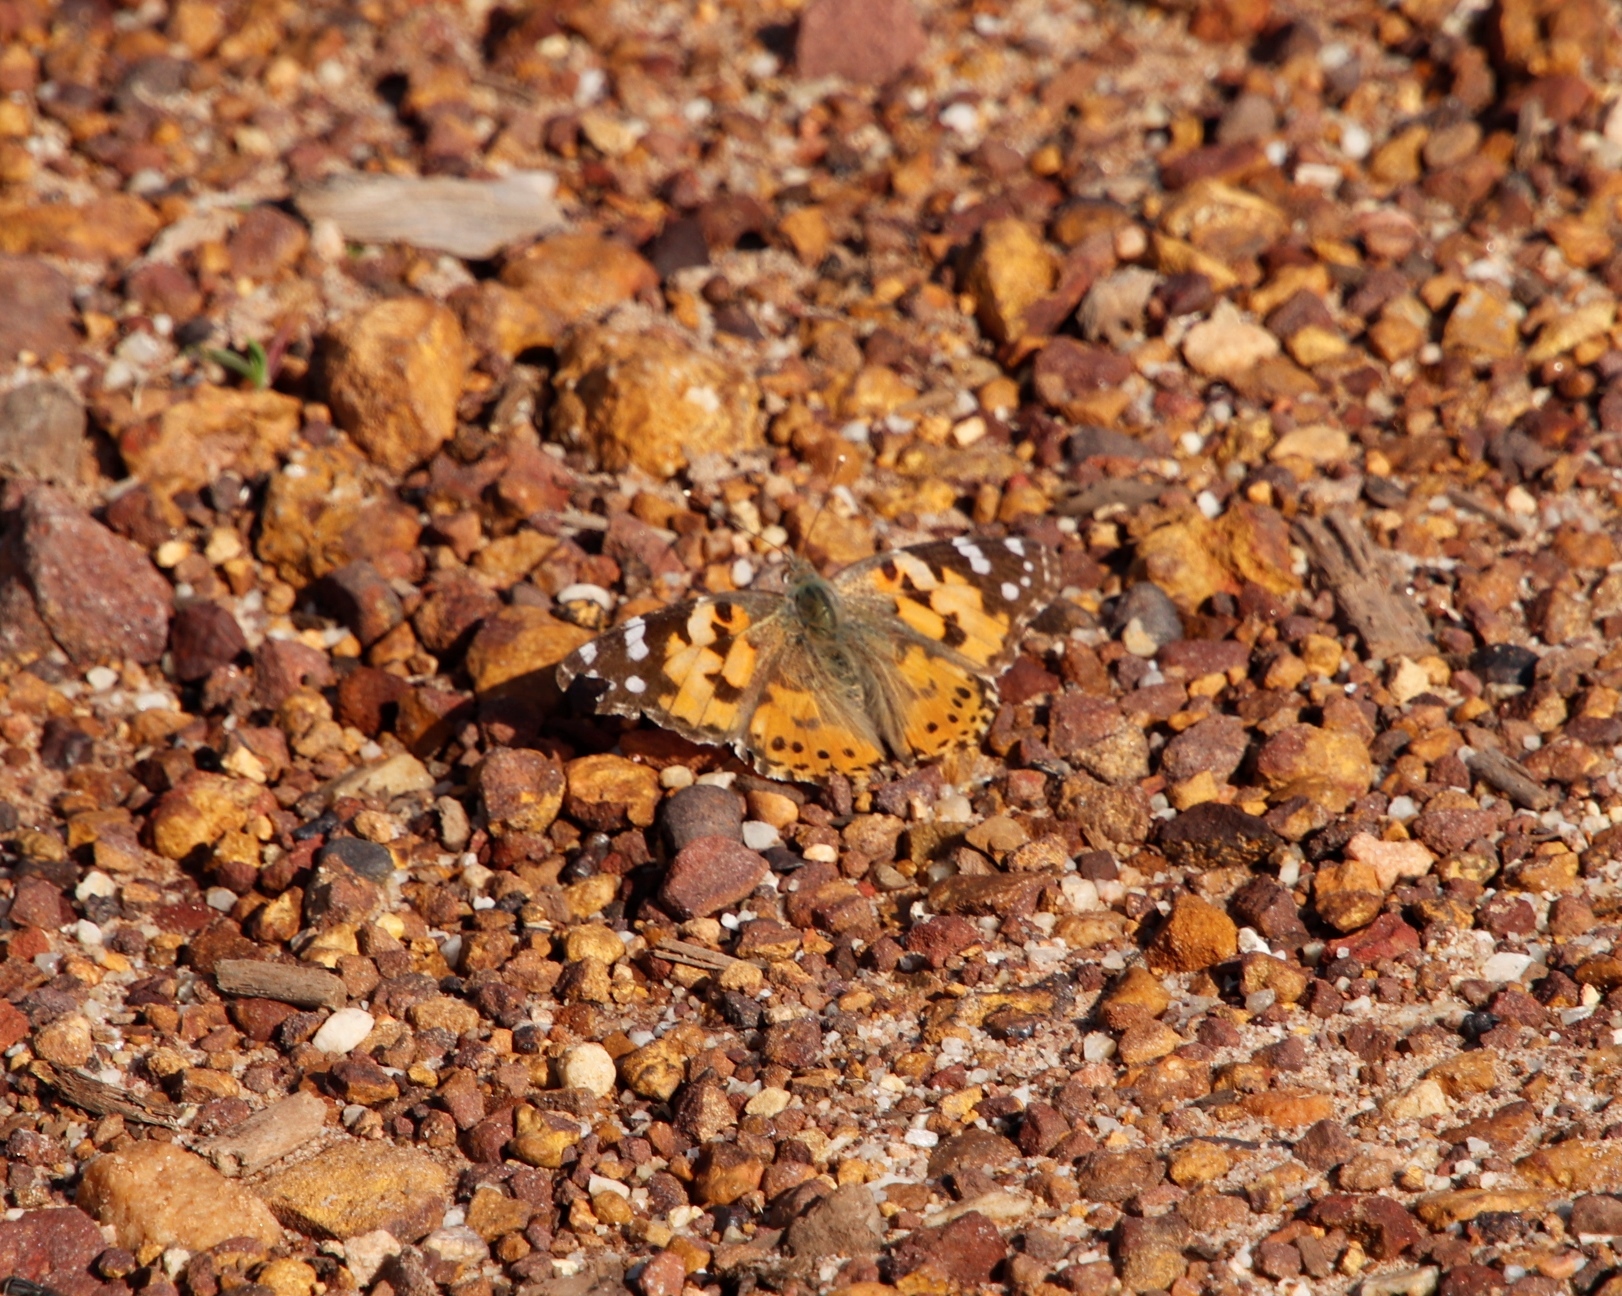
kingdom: Animalia
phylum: Arthropoda
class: Insecta
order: Lepidoptera
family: Nymphalidae
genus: Vanessa
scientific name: Vanessa cardui
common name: Painted lady
